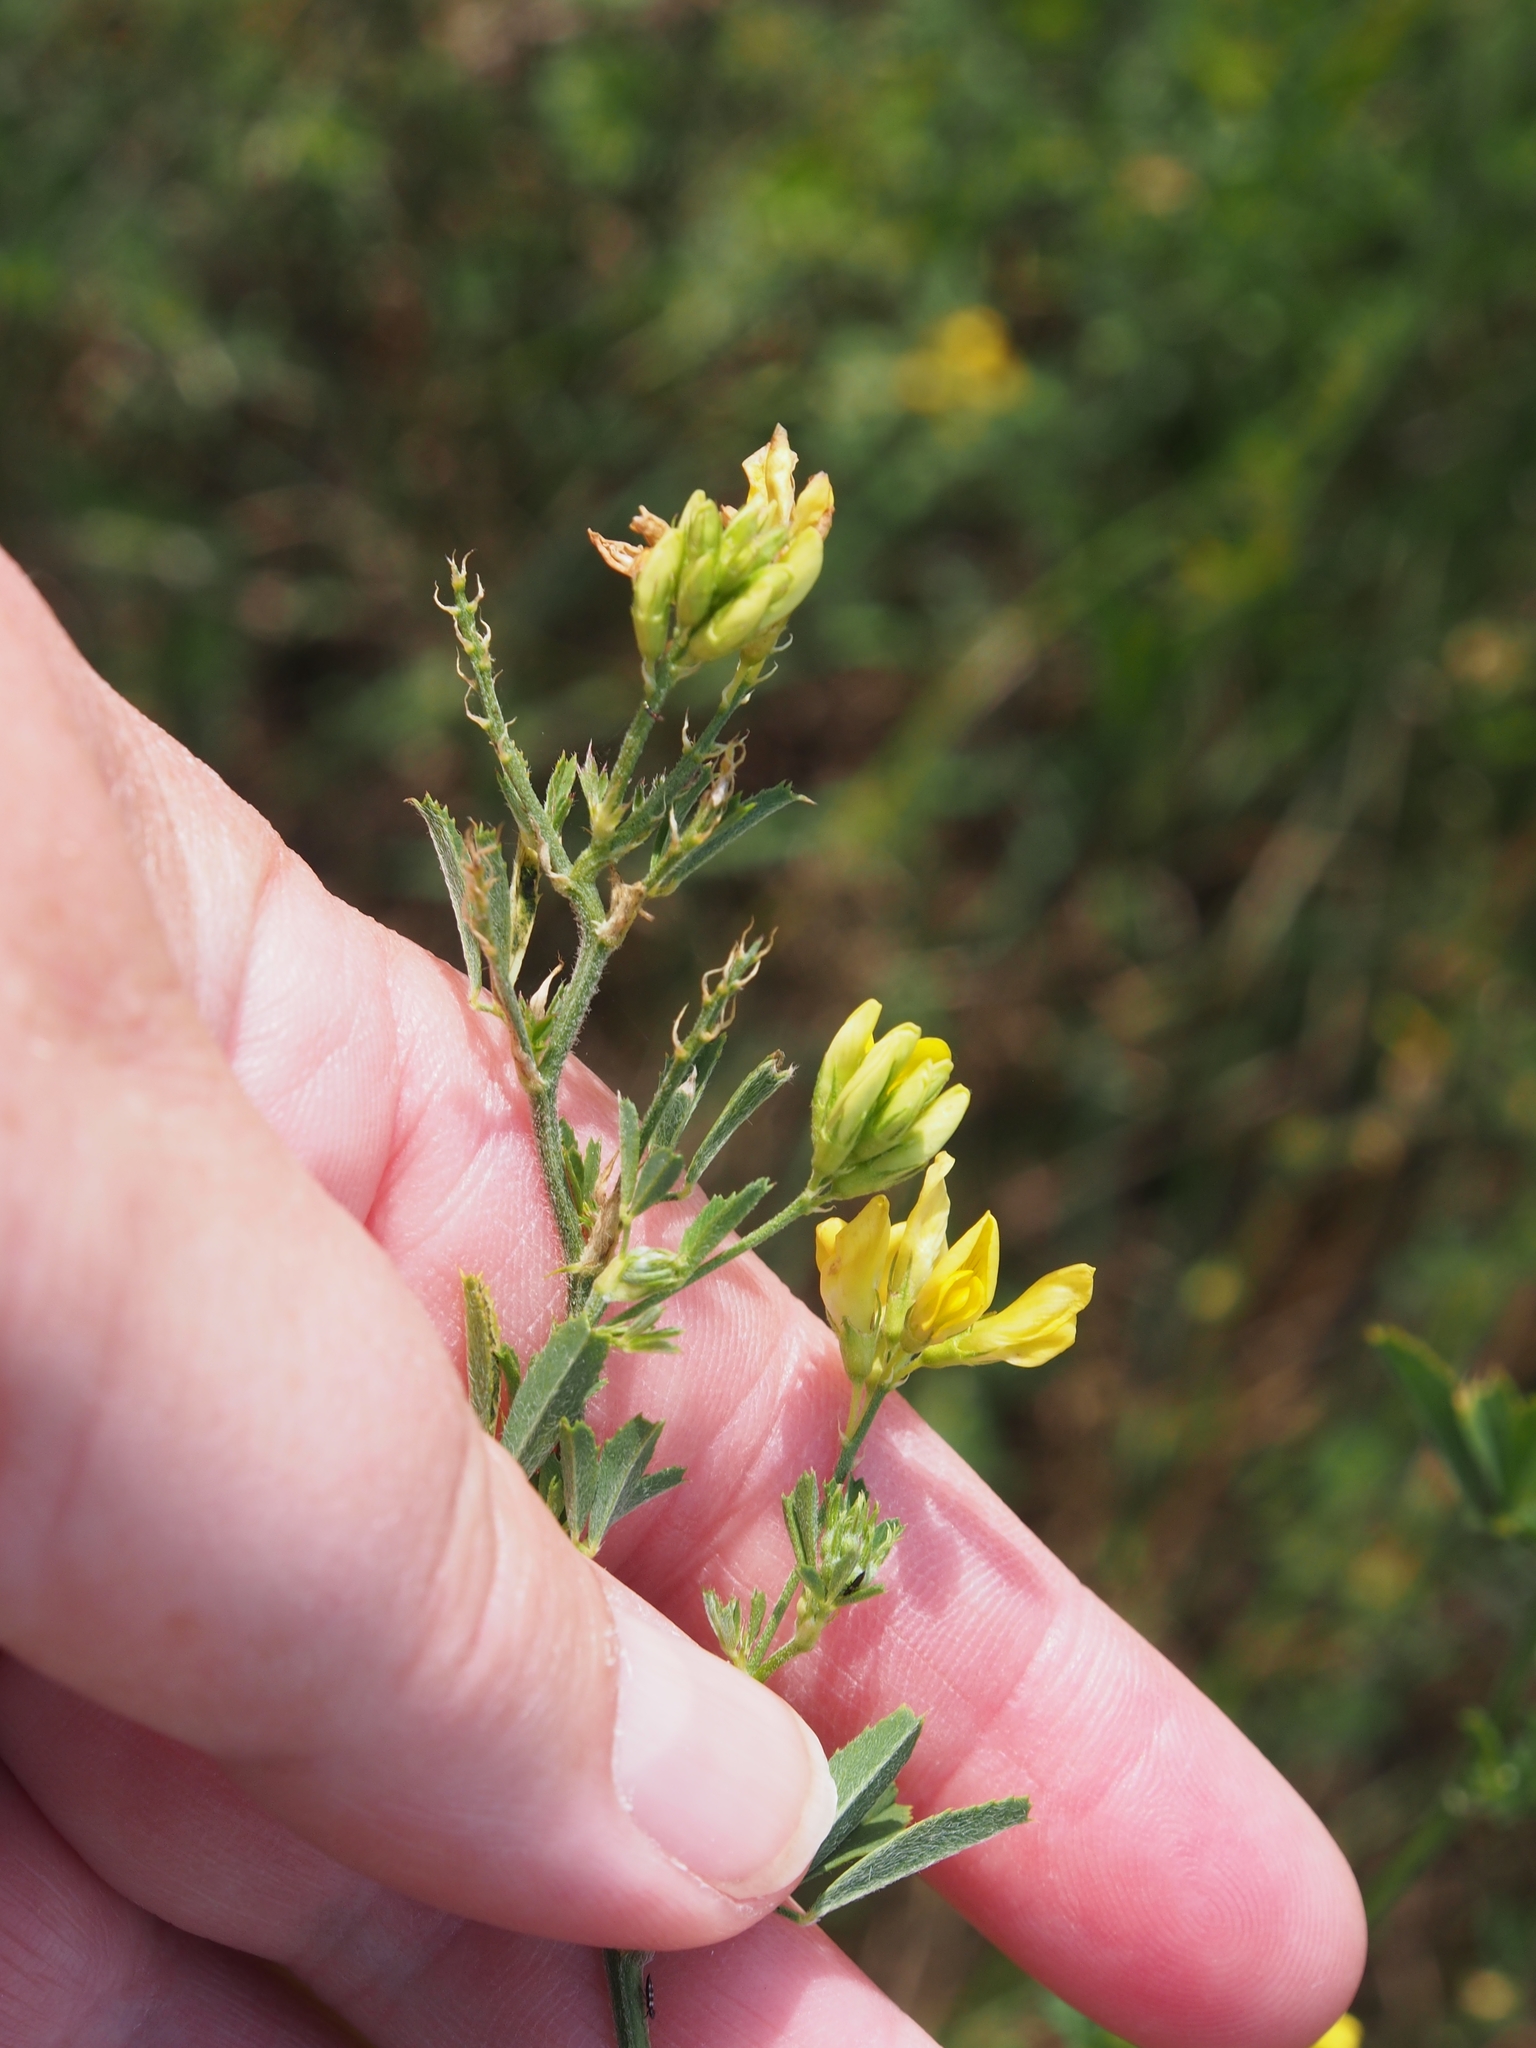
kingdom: Plantae
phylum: Tracheophyta
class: Magnoliopsida
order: Fabales
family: Fabaceae
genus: Medicago
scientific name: Medicago falcata
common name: Sickle medick
